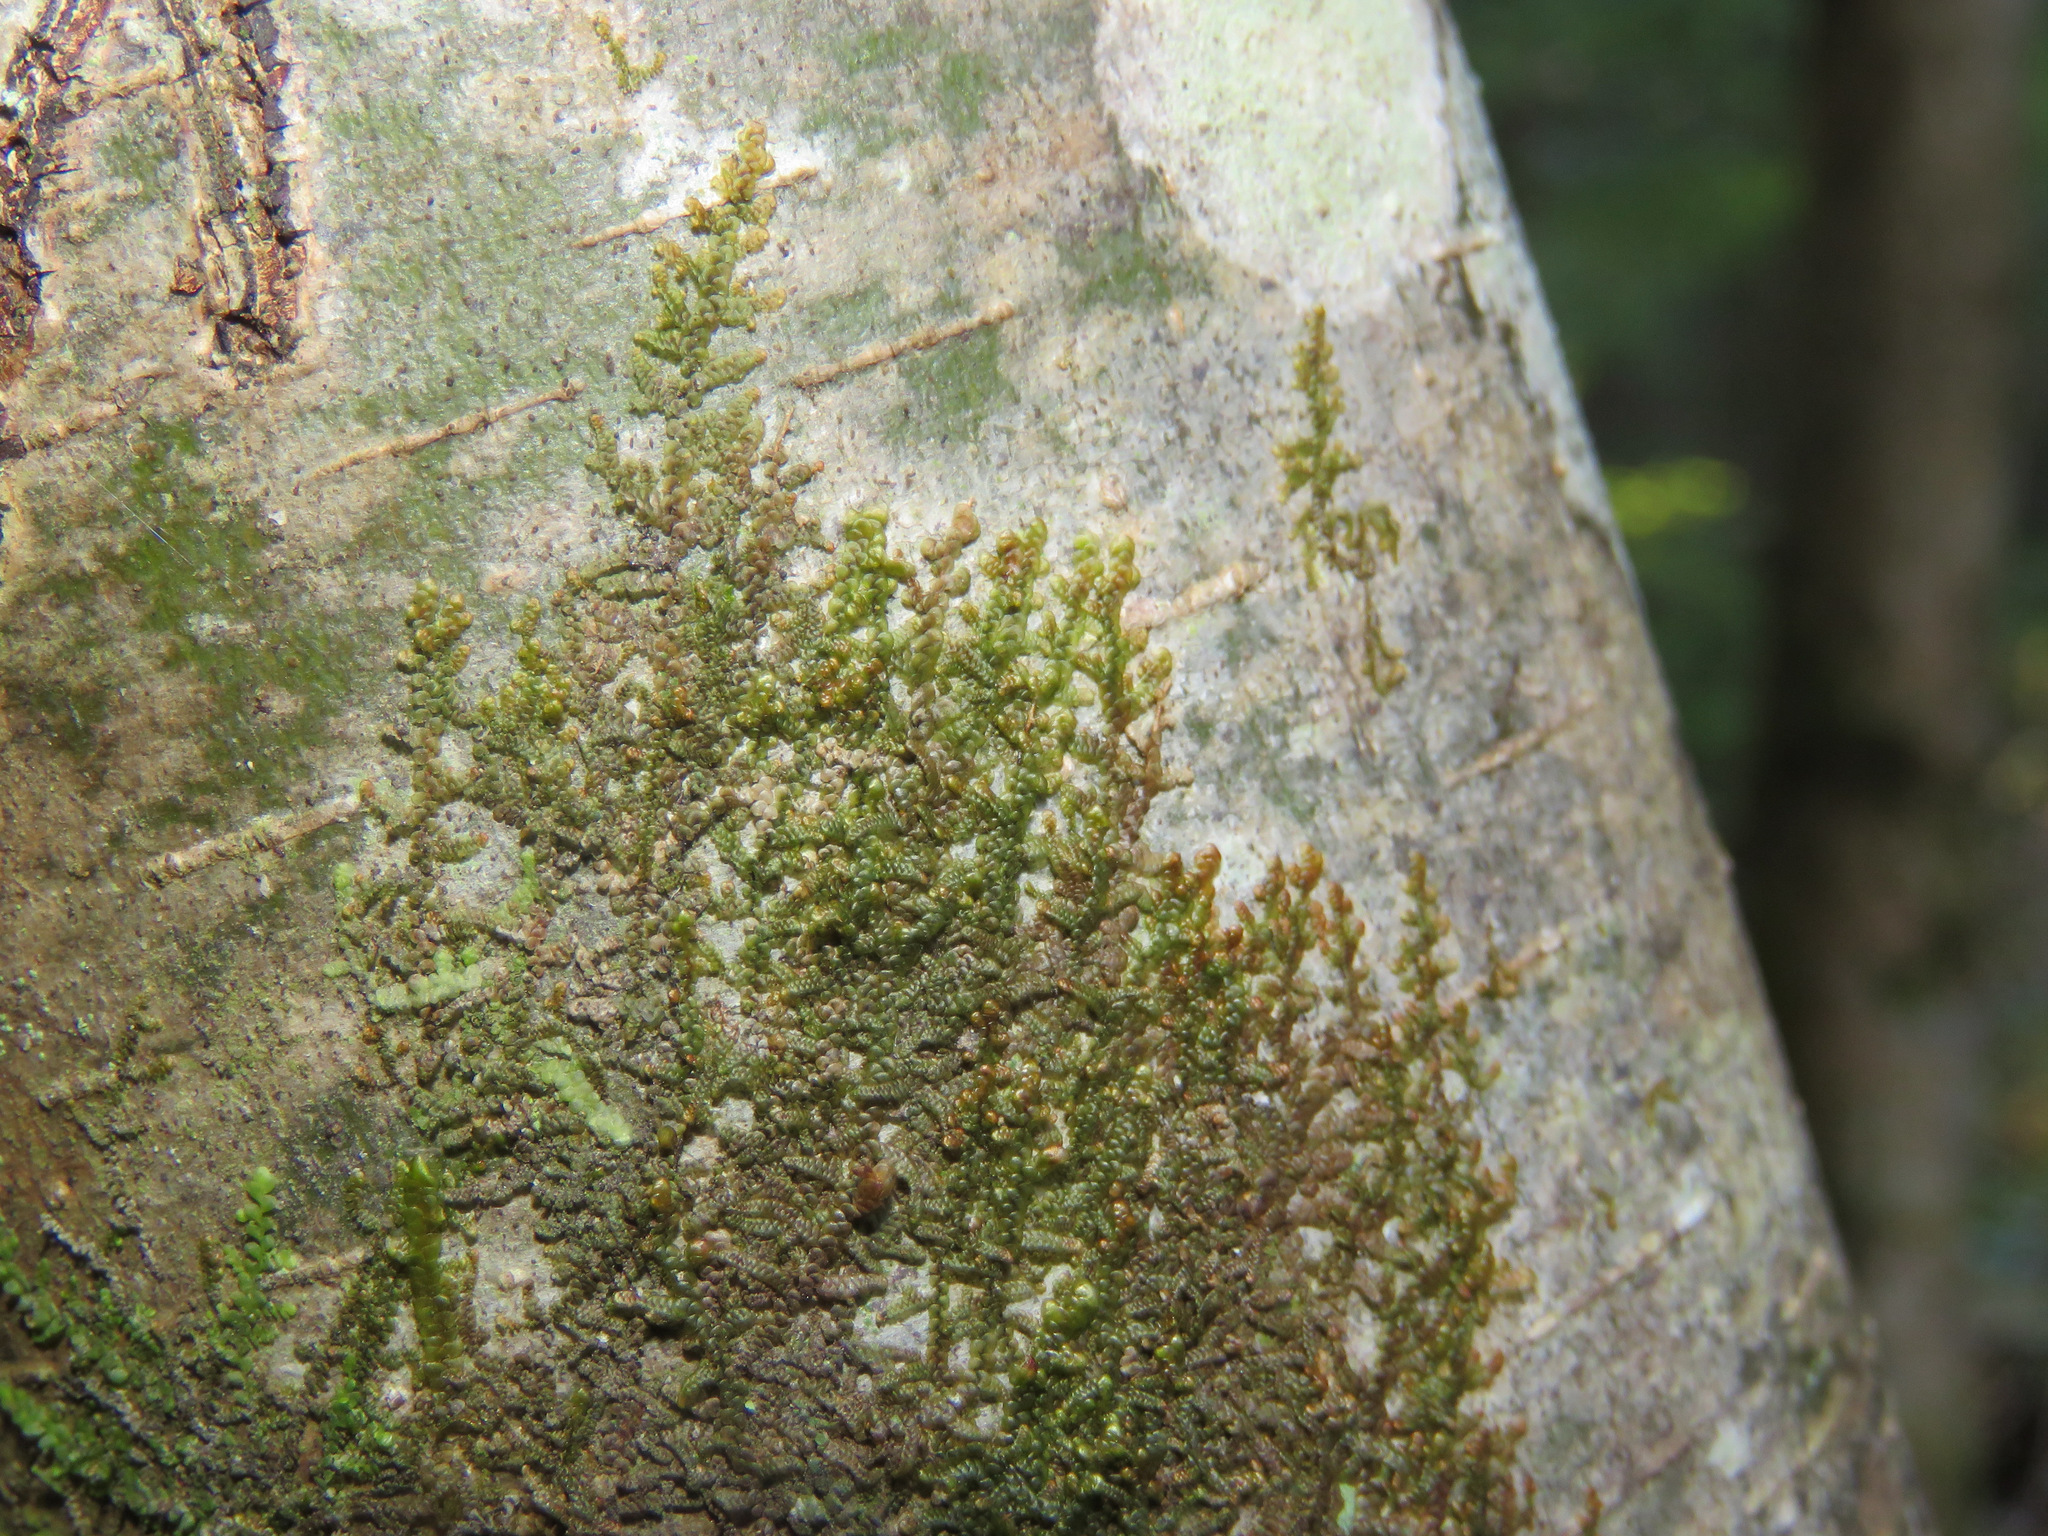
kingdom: Plantae
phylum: Marchantiophyta
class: Jungermanniopsida
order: Porellales
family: Porellaceae
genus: Porella
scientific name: Porella navicularis
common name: Tree ruffle liverwort
